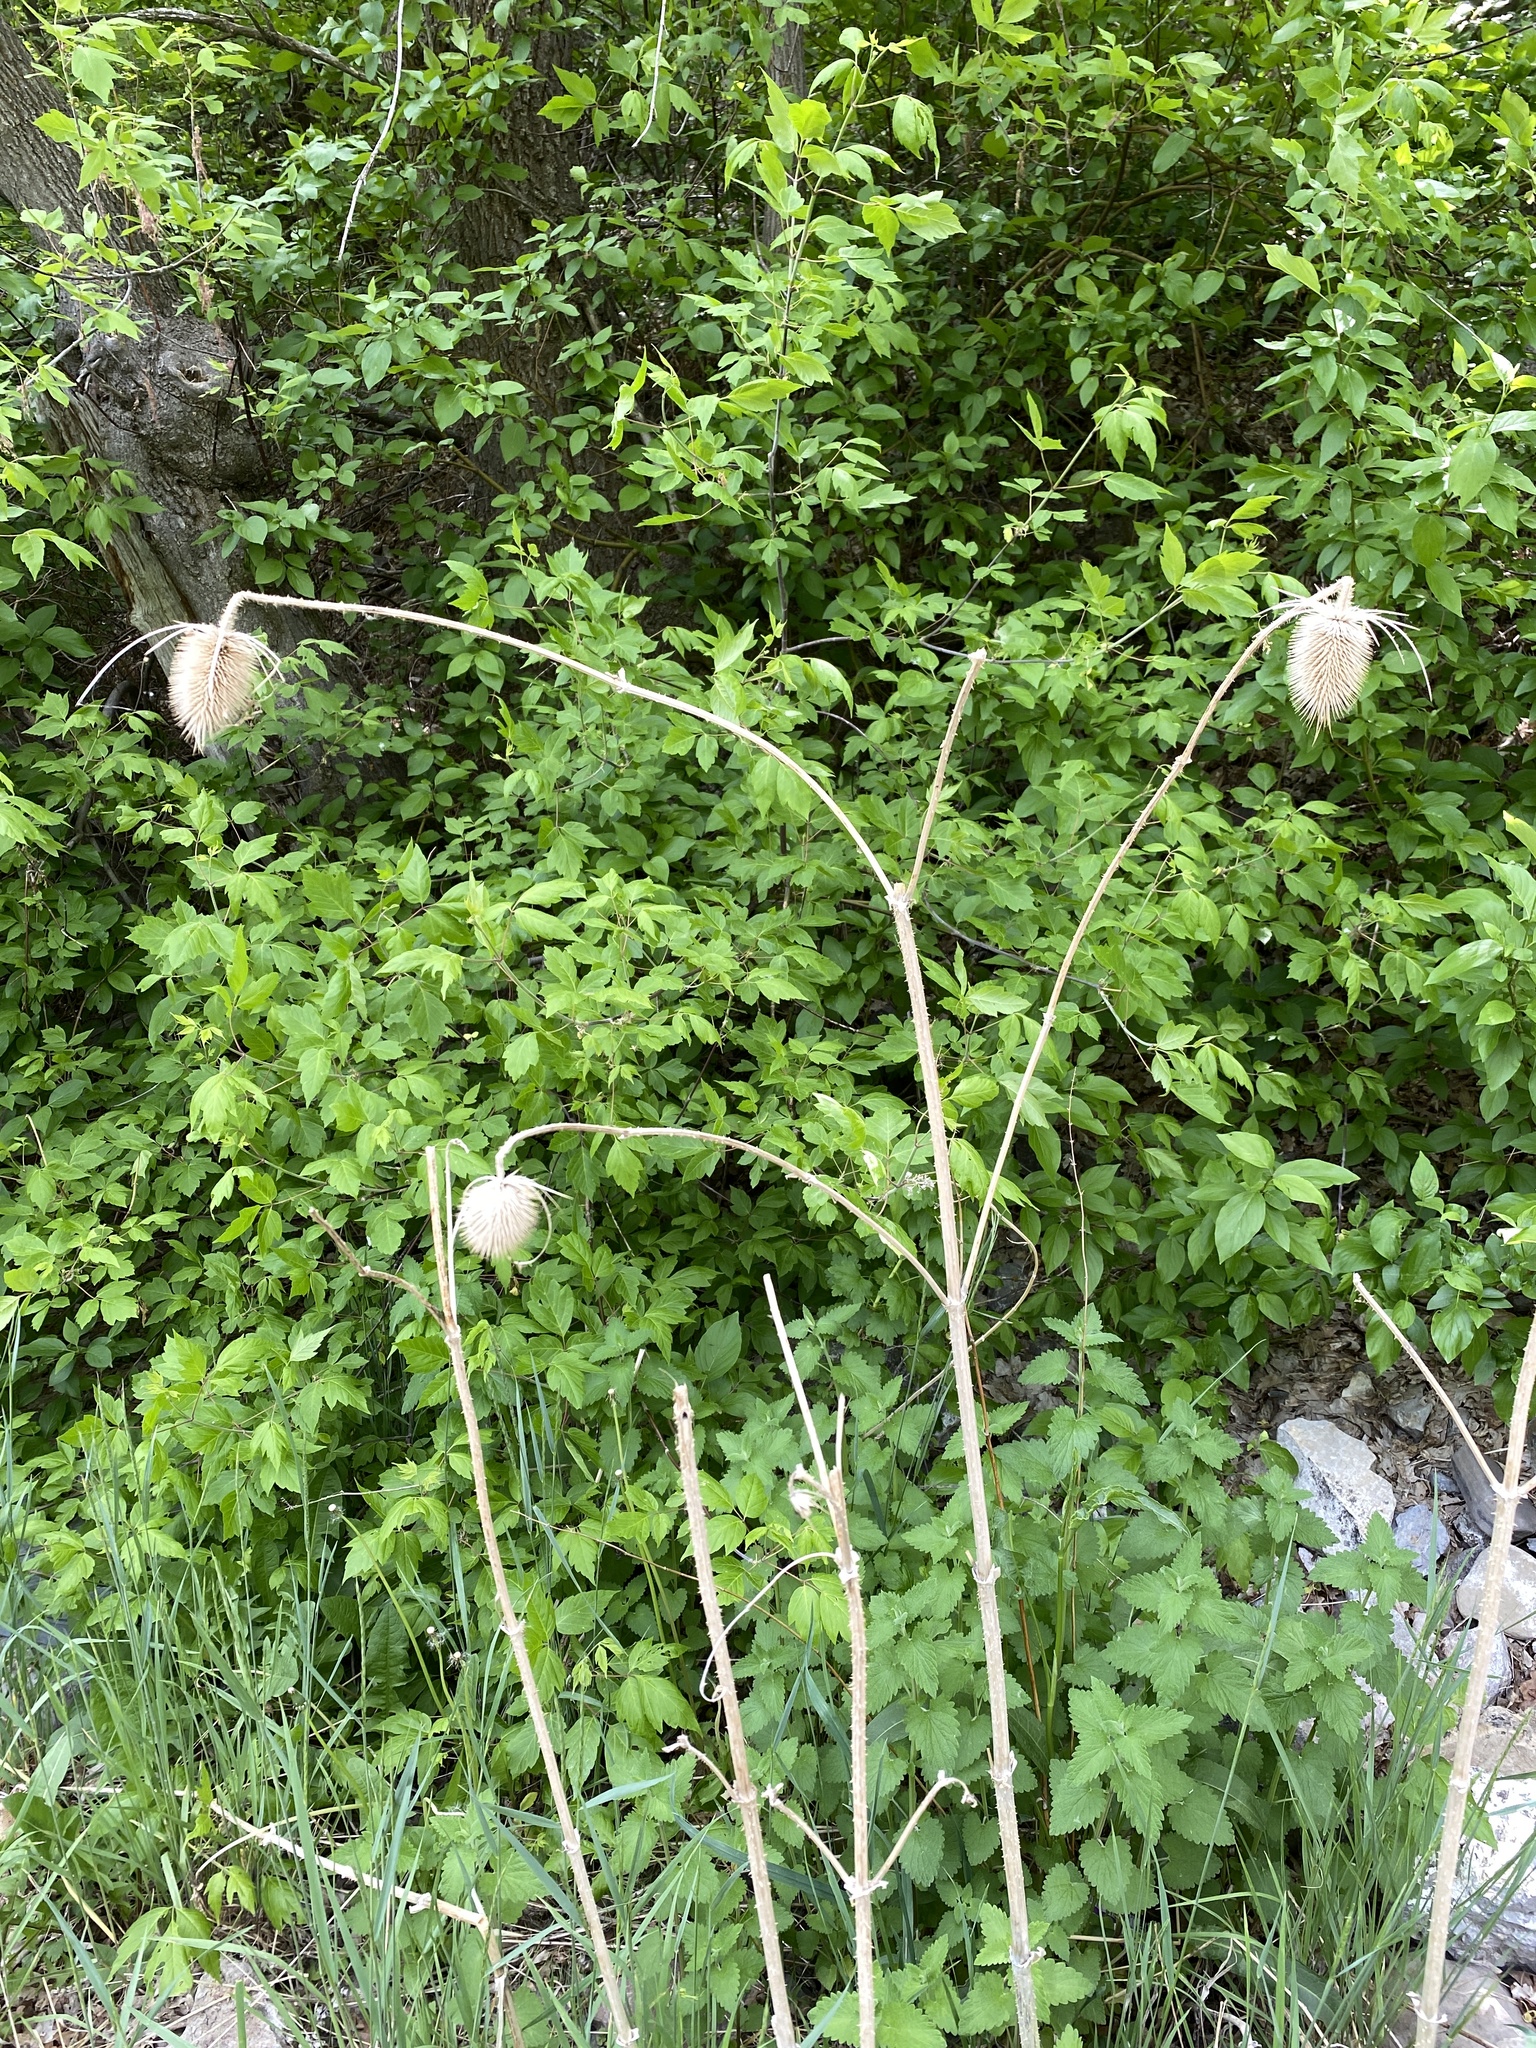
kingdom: Plantae
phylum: Tracheophyta
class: Magnoliopsida
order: Dipsacales
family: Caprifoliaceae
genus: Dipsacus
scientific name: Dipsacus fullonum
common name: Teasel
